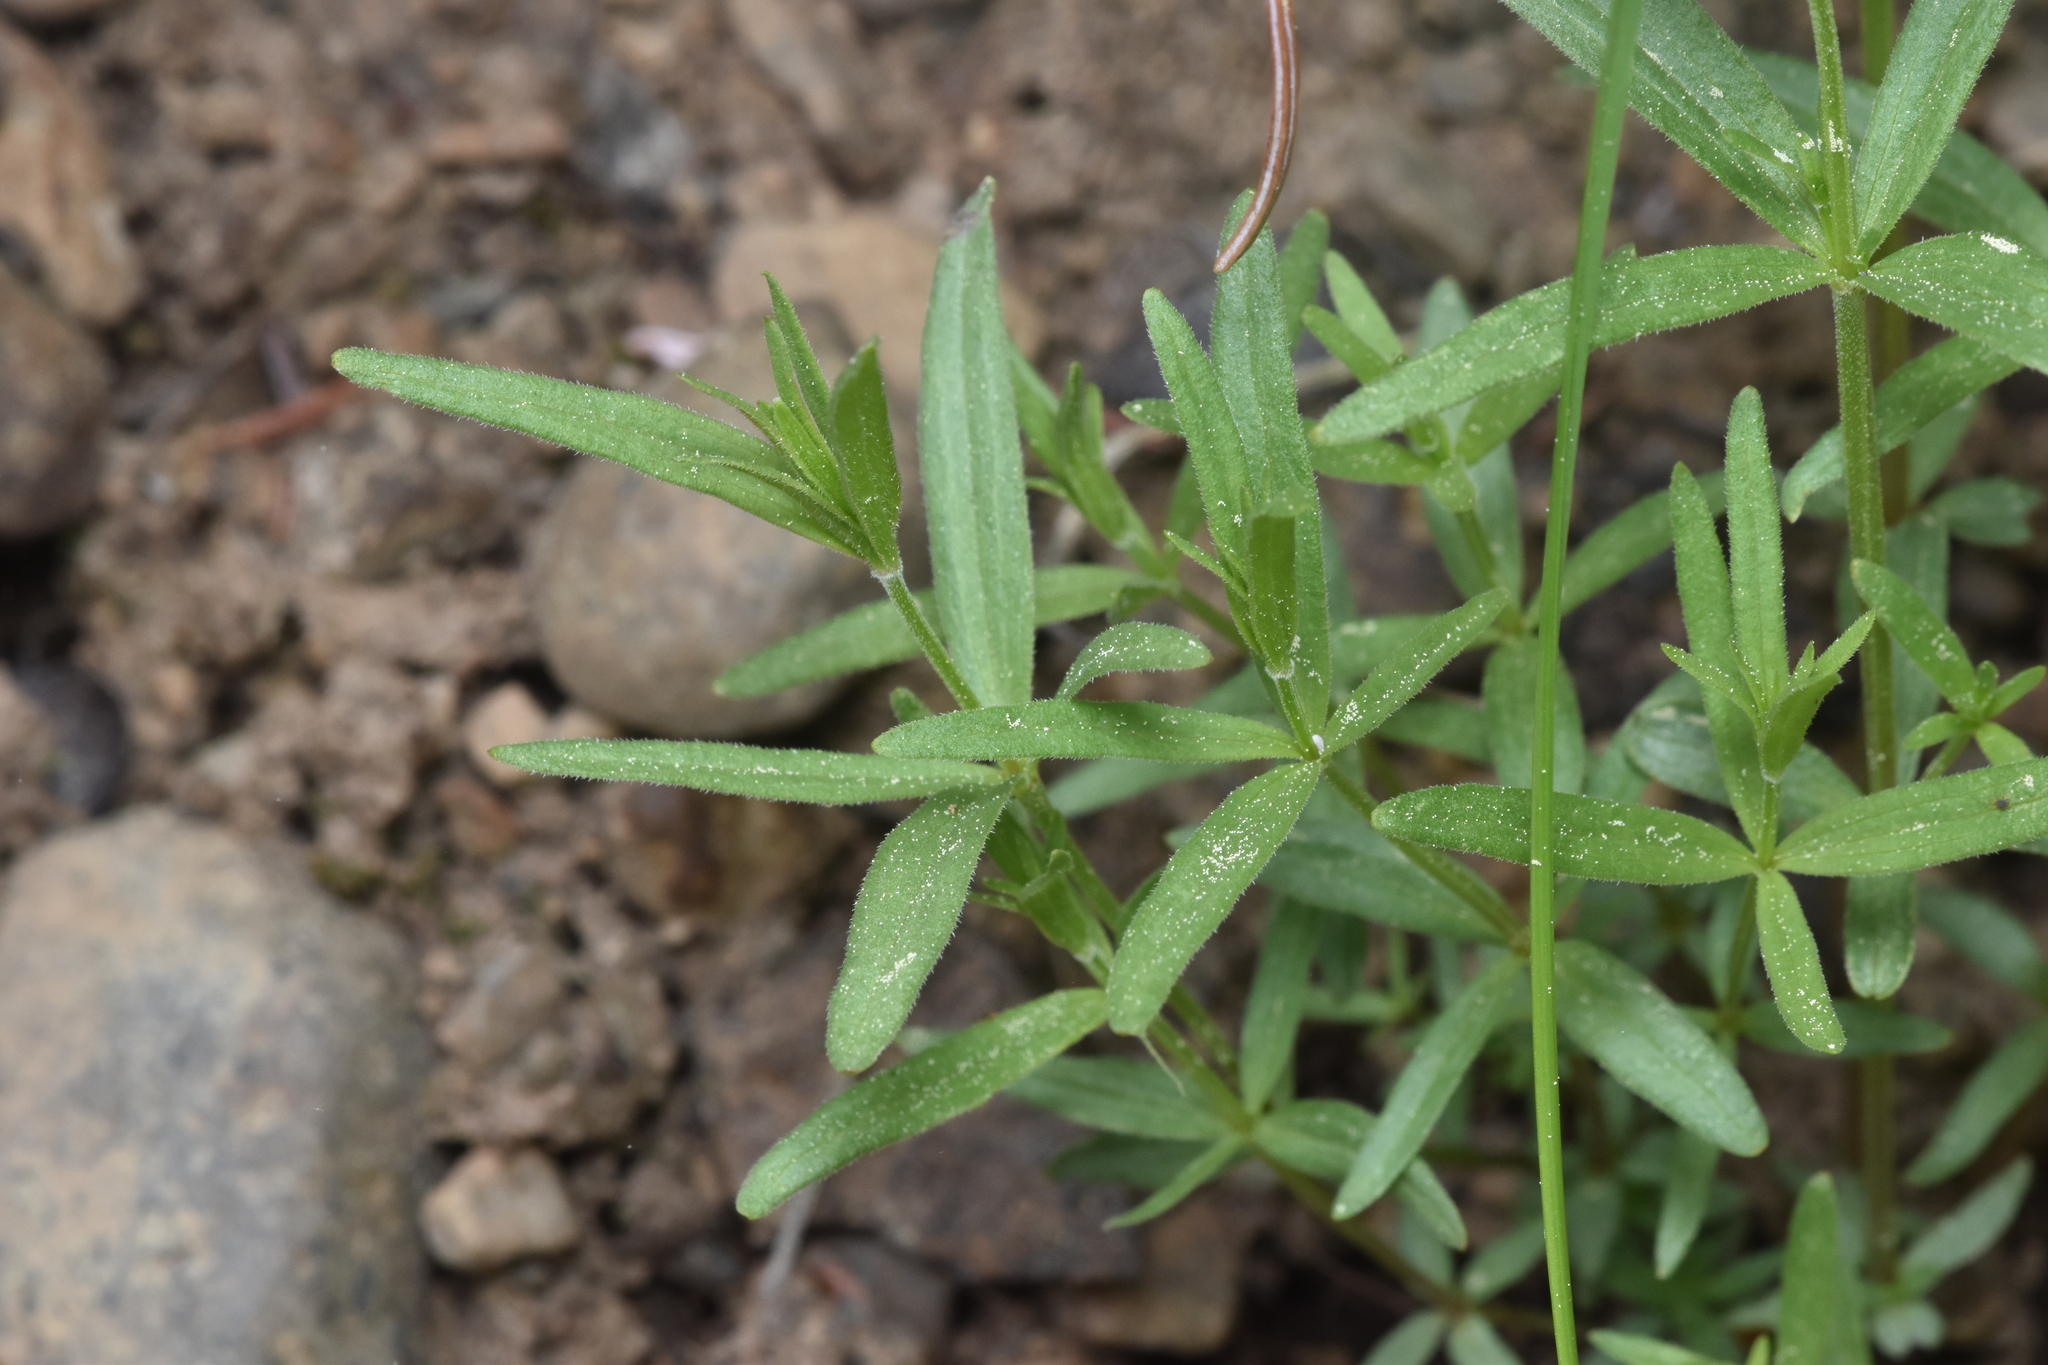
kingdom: Plantae
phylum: Tracheophyta
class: Magnoliopsida
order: Gentianales
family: Rubiaceae
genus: Galium
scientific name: Galium boreale
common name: Northern bedstraw
